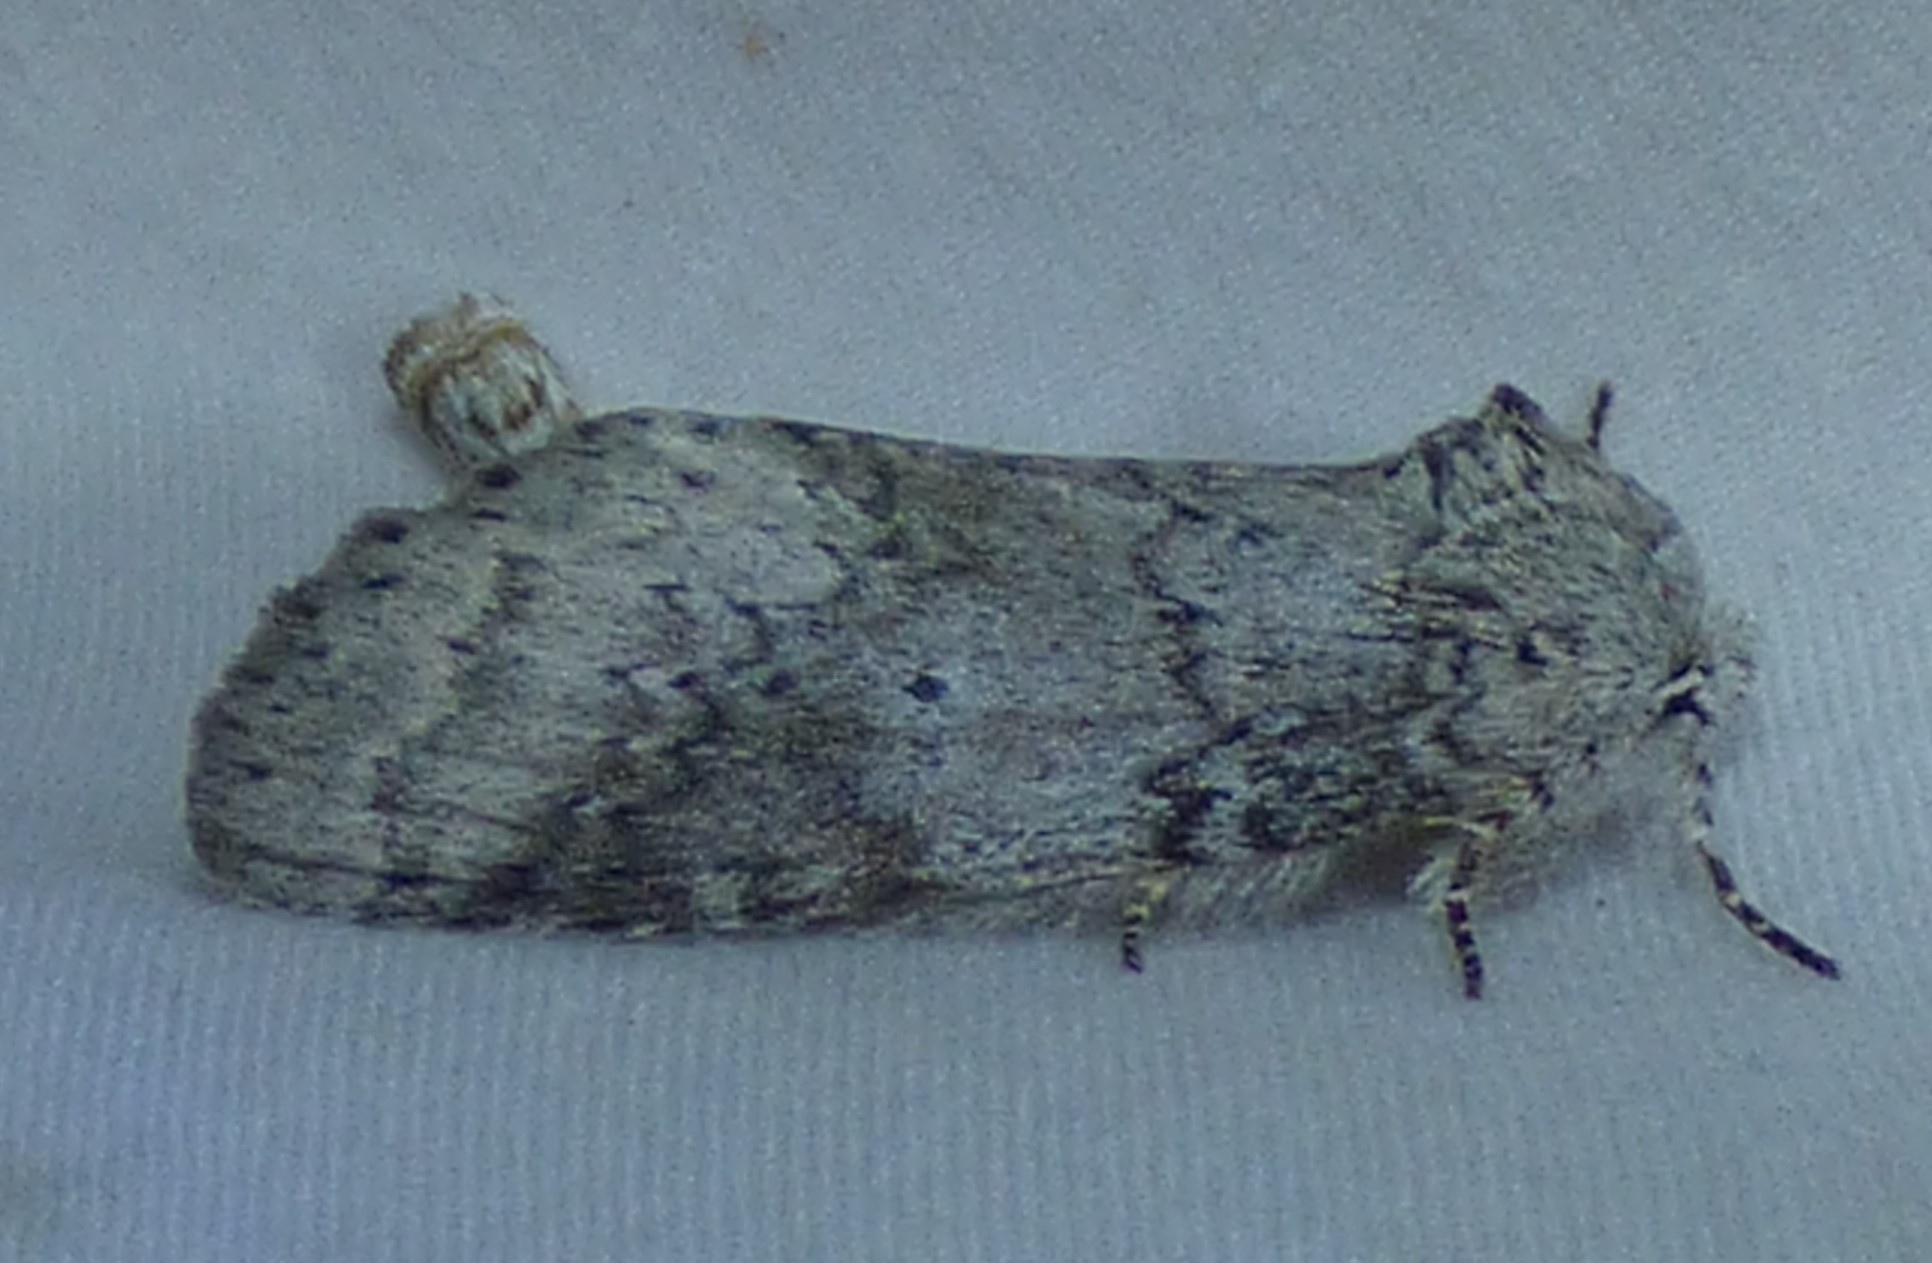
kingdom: Animalia
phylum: Arthropoda
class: Insecta
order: Lepidoptera
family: Notodontidae
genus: Lochmaeus
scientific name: Lochmaeus manteo
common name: Variable oakleaf caterpillar moth
